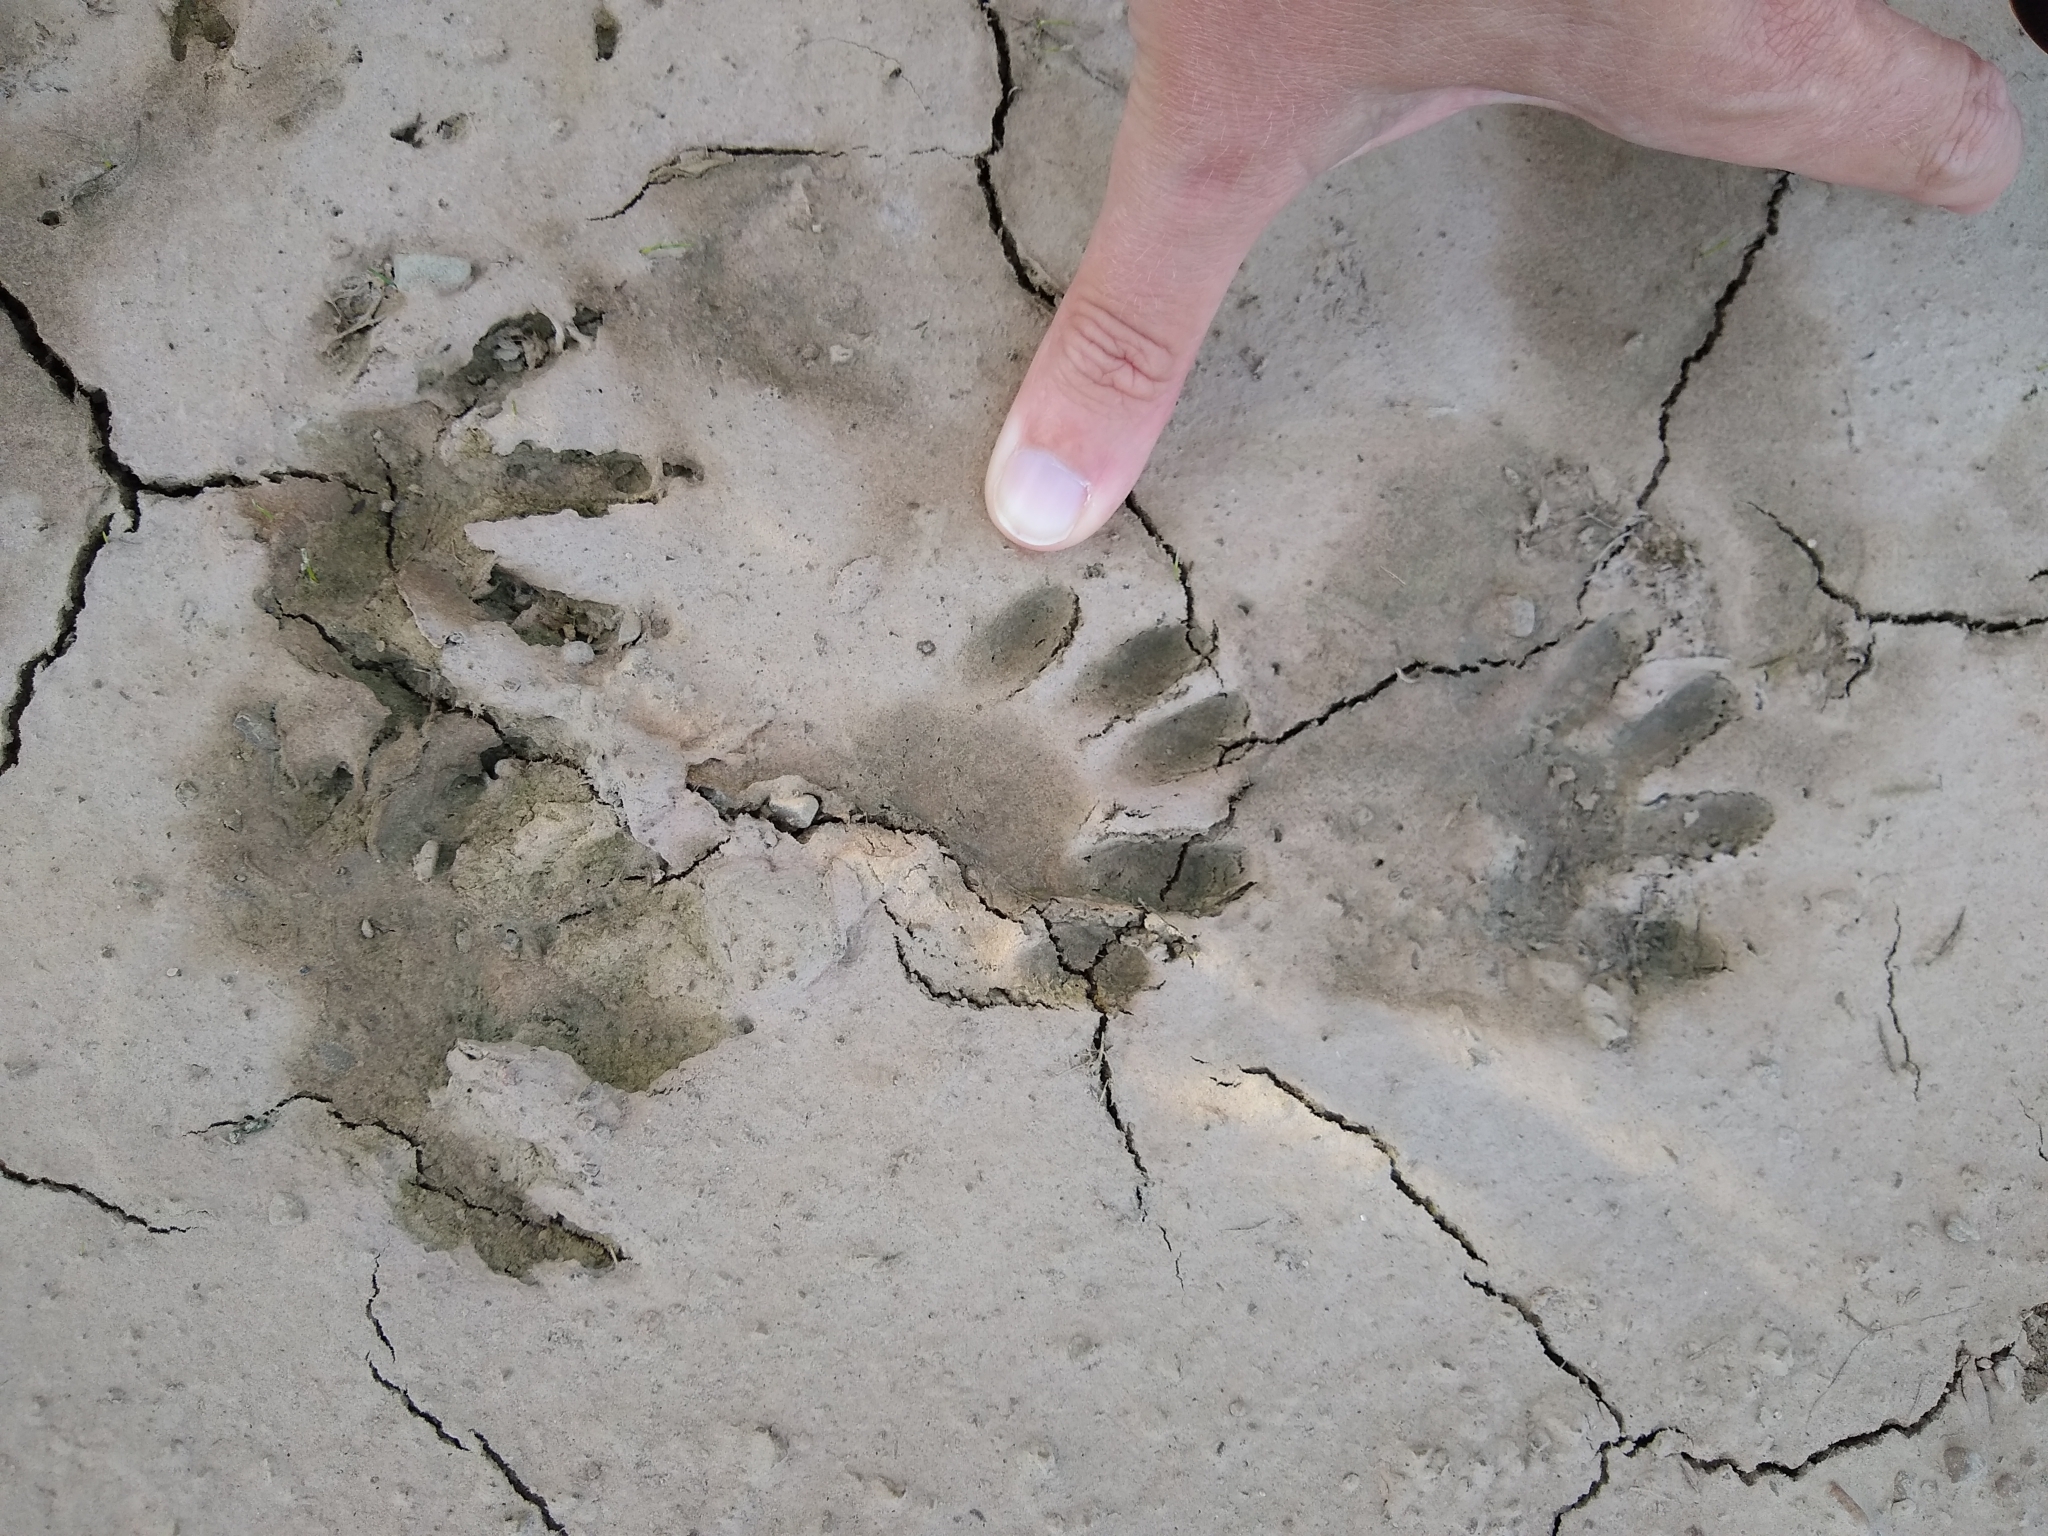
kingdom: Animalia
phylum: Chordata
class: Mammalia
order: Carnivora
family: Procyonidae
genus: Procyon
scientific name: Procyon lotor
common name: Raccoon
